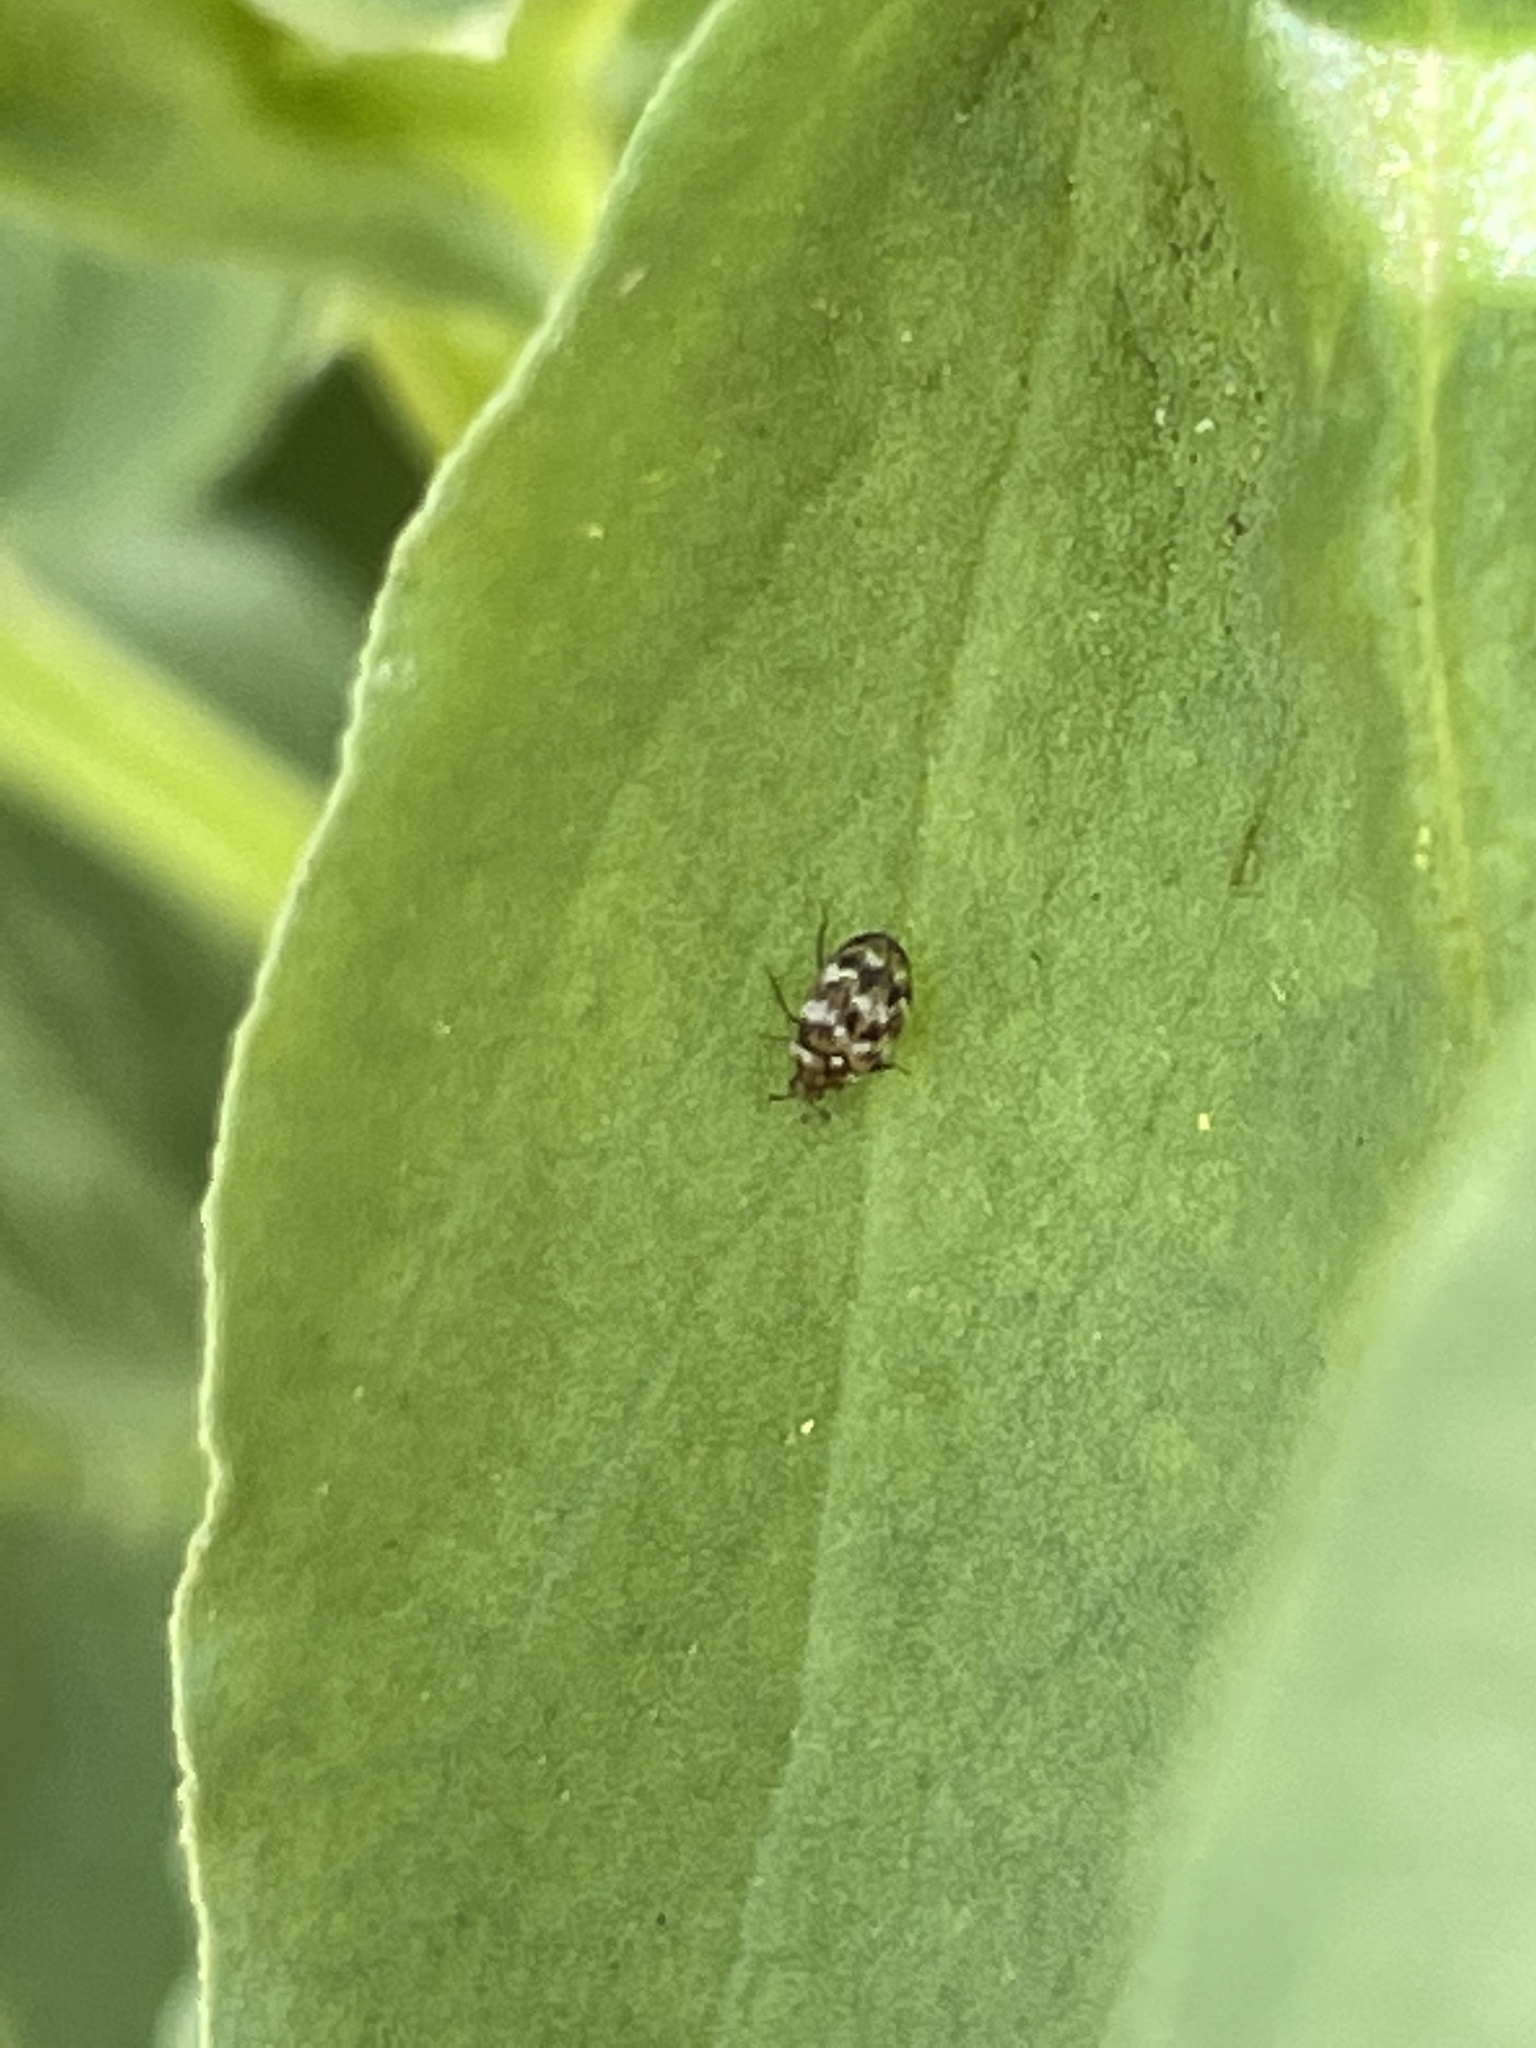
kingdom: Animalia
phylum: Arthropoda
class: Insecta
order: Coleoptera
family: Dermestidae
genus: Anthrenus
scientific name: Anthrenus verbasci
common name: Varied carpet beetle
